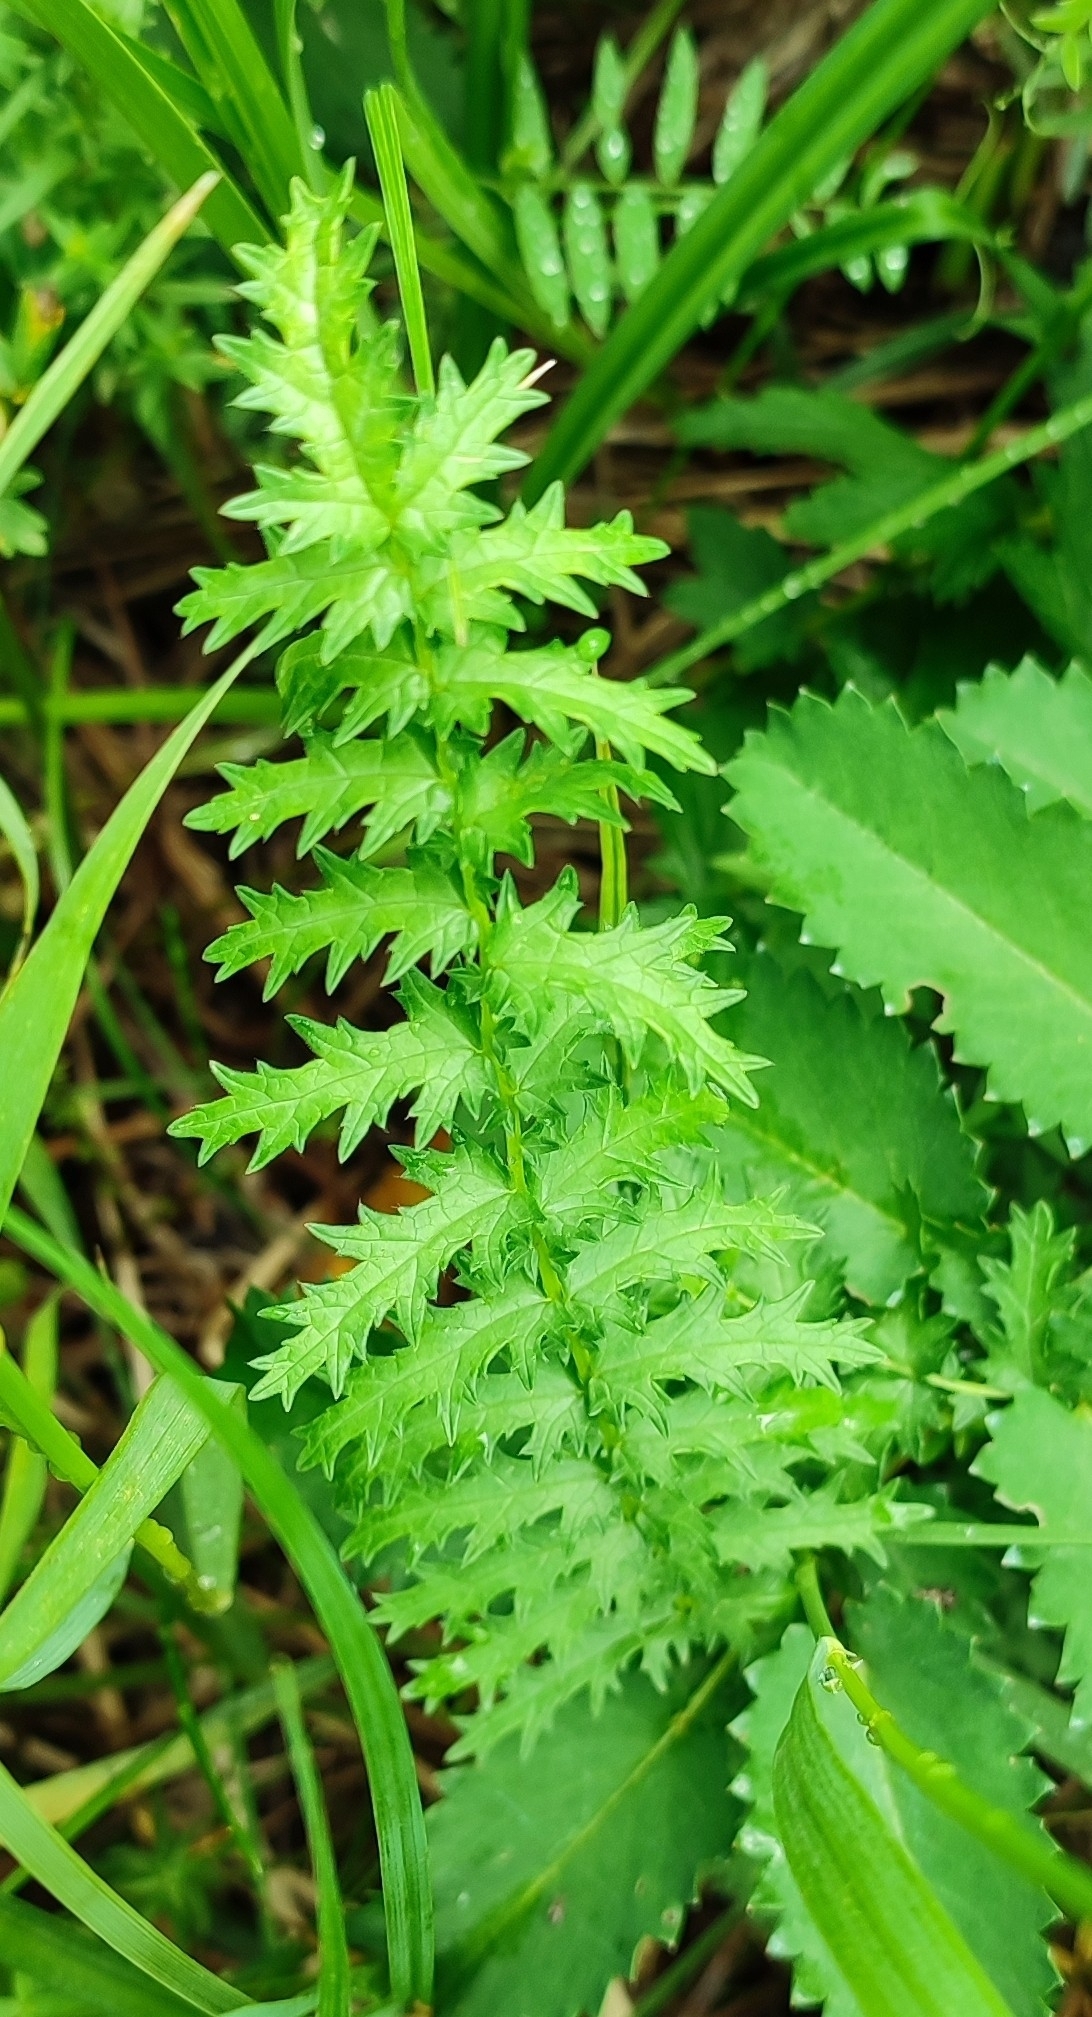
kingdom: Plantae
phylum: Tracheophyta
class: Magnoliopsida
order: Rosales
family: Rosaceae
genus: Filipendula
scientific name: Filipendula vulgaris
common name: Dropwort
